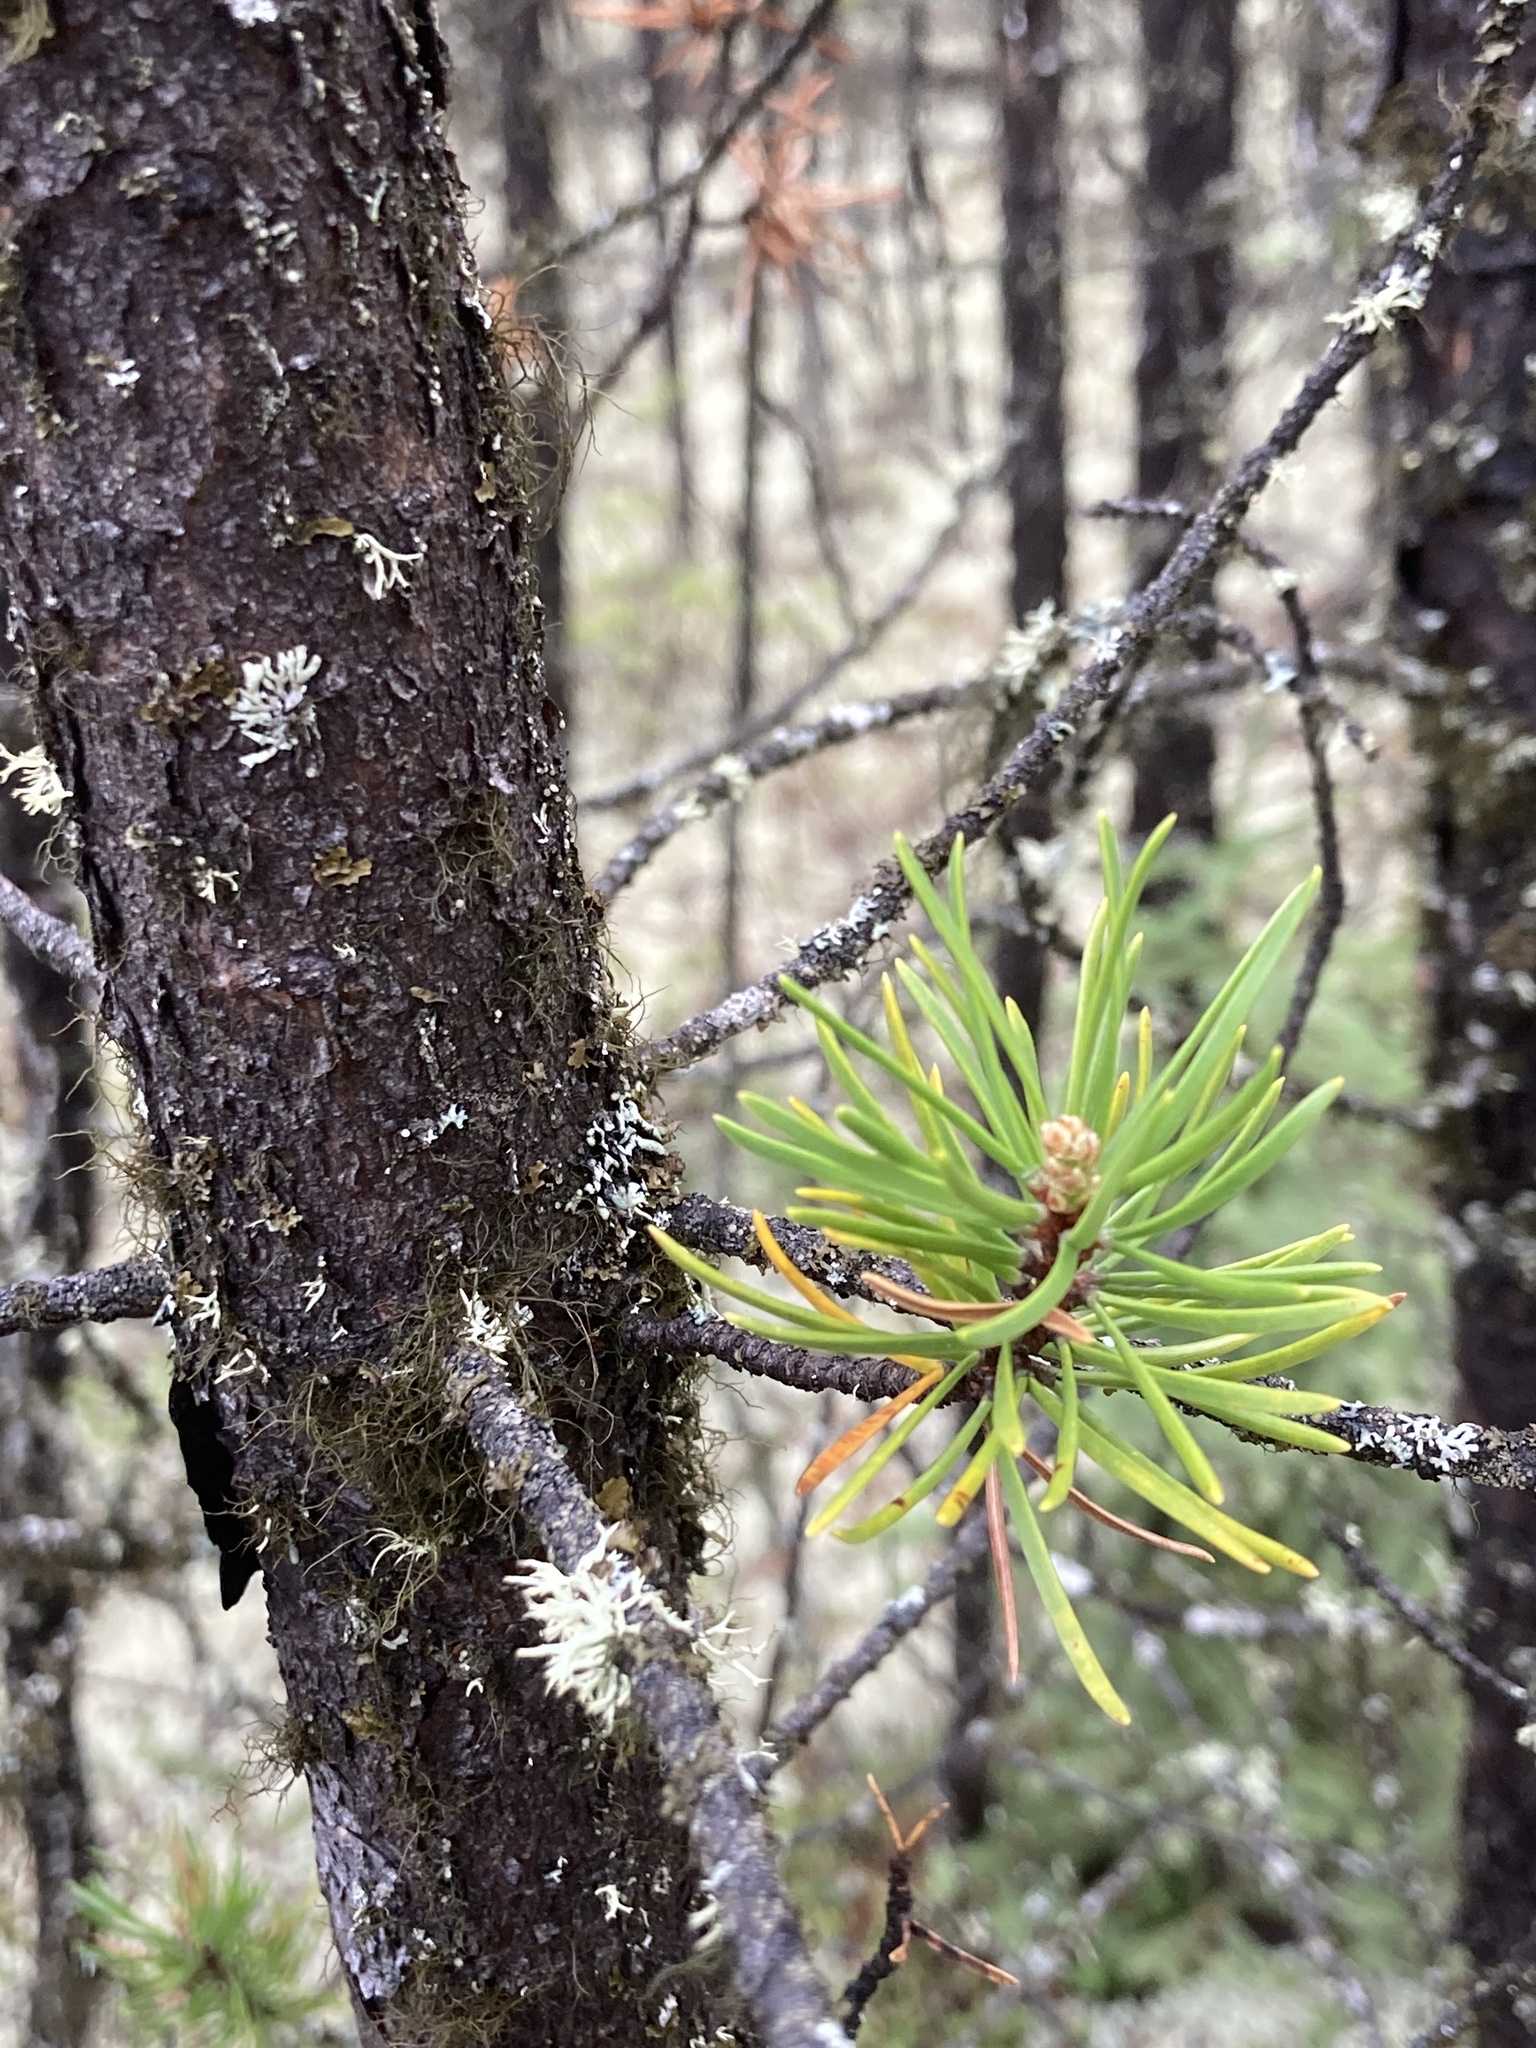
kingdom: Plantae
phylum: Tracheophyta
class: Pinopsida
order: Pinales
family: Pinaceae
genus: Pinus
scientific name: Pinus banksiana
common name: Jack pine
